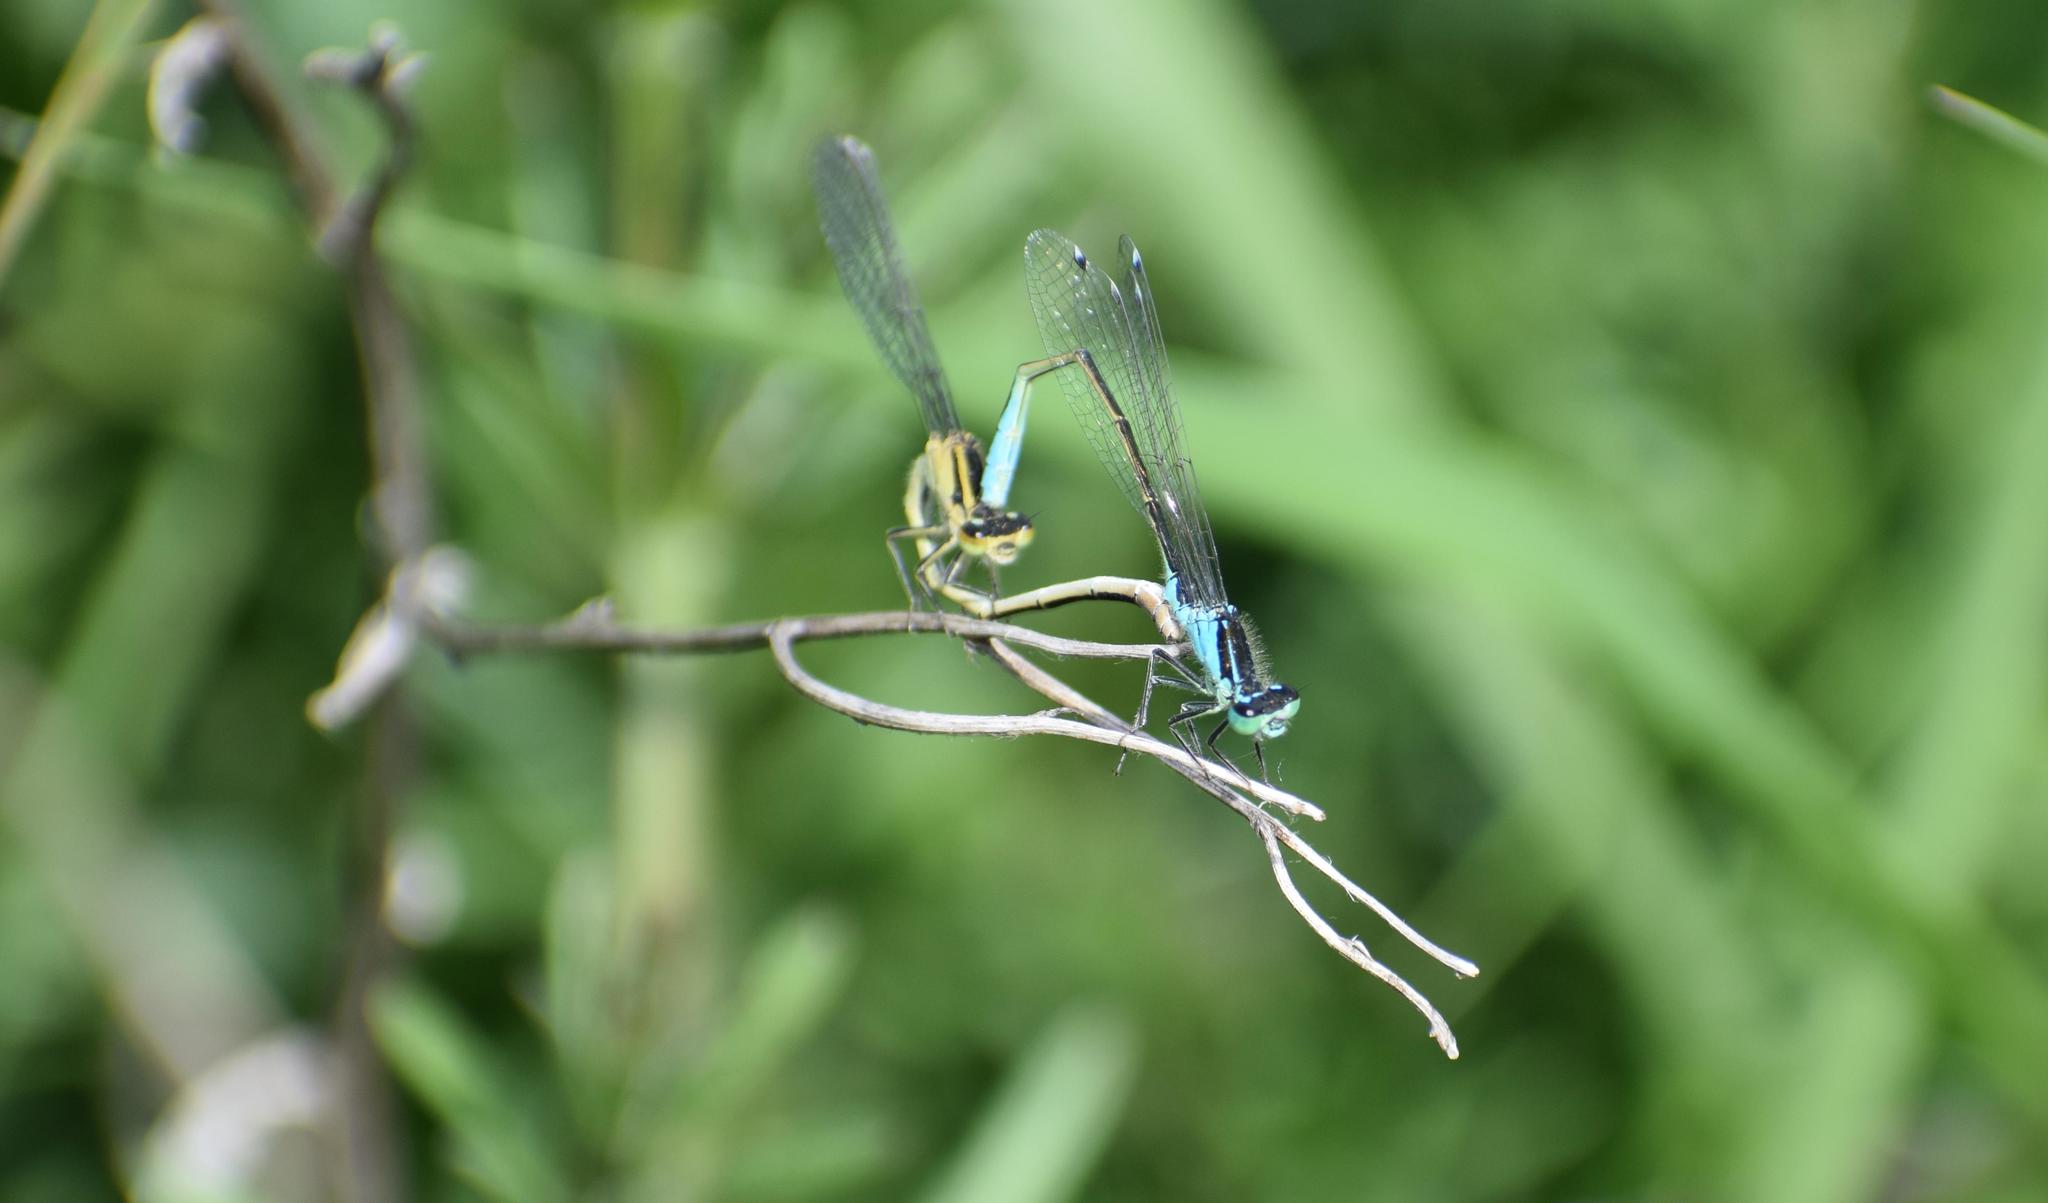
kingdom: Animalia
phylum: Arthropoda
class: Insecta
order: Odonata
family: Coenagrionidae
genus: Ischnura
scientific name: Ischnura elegans
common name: Blue-tailed damselfly
